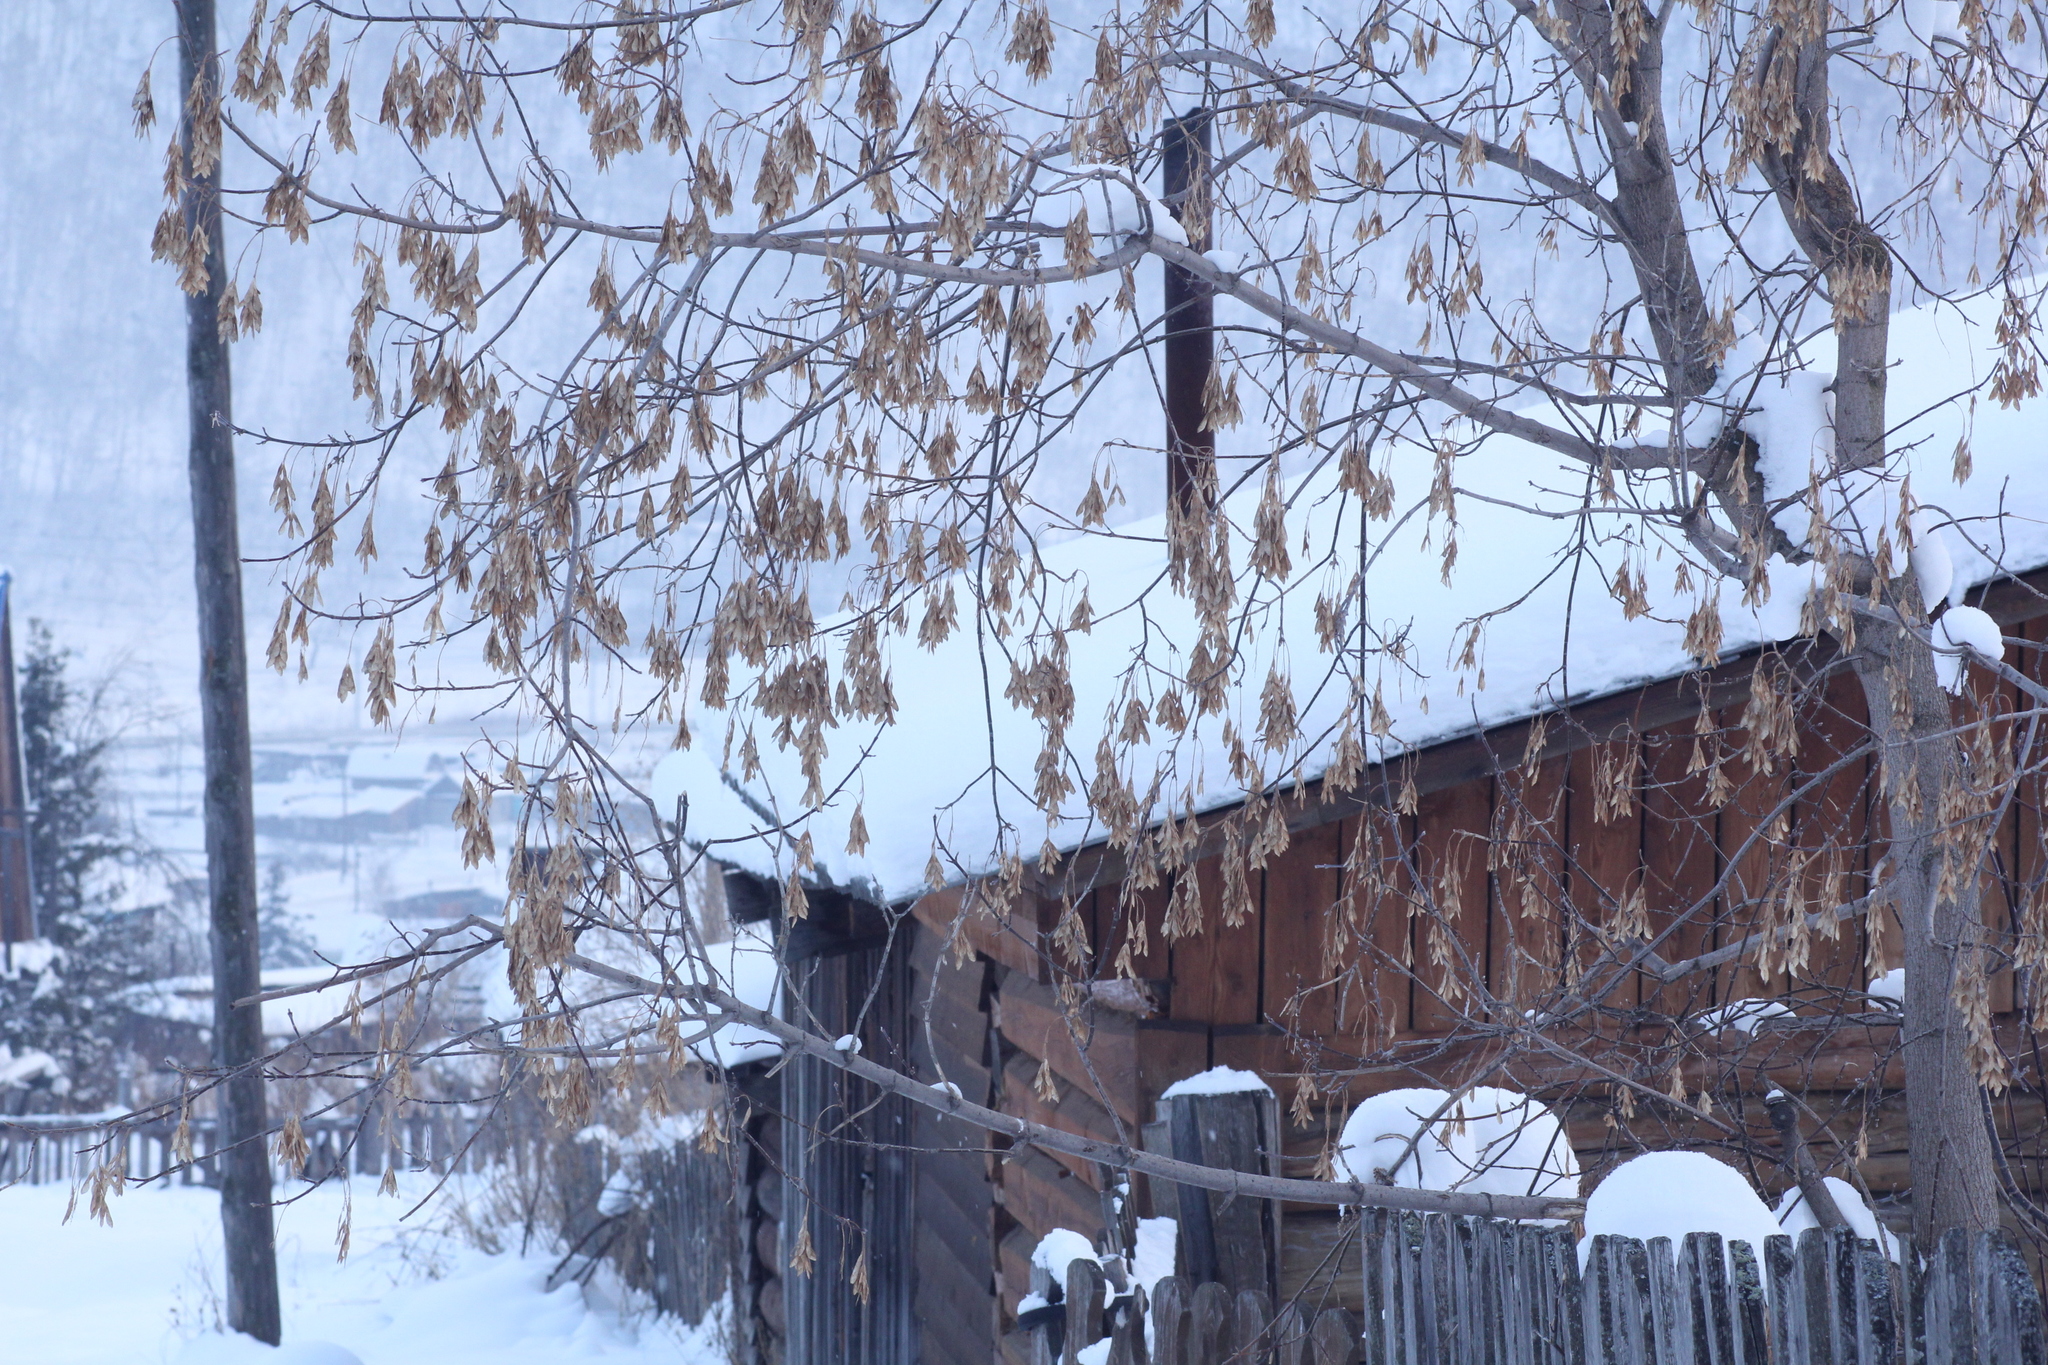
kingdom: Plantae
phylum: Tracheophyta
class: Magnoliopsida
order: Sapindales
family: Sapindaceae
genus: Acer
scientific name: Acer negundo
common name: Ashleaf maple
